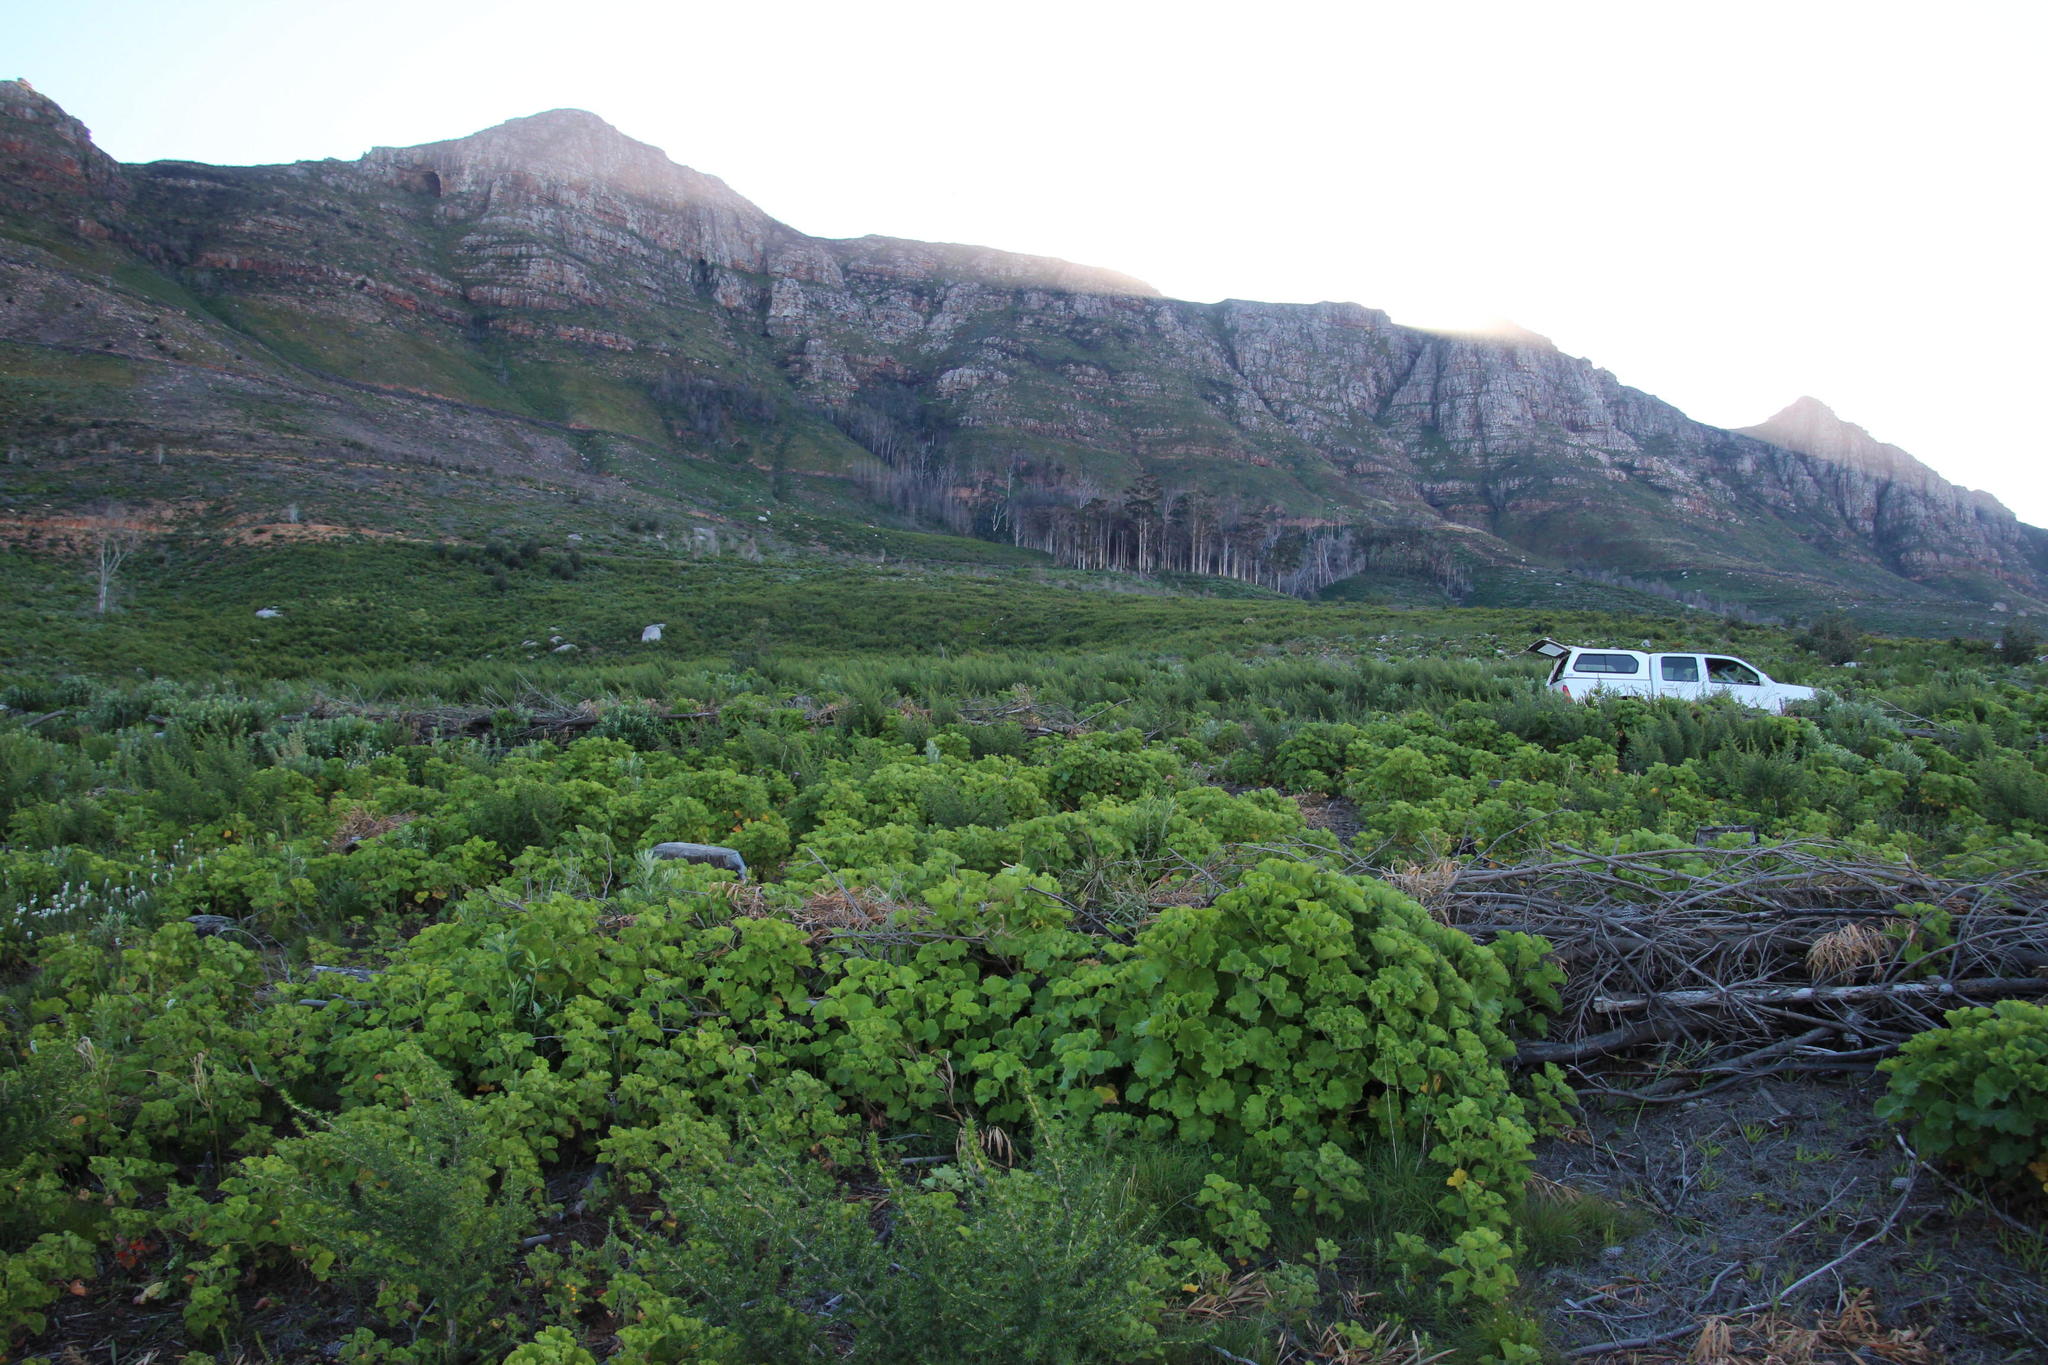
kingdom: Plantae
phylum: Tracheophyta
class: Magnoliopsida
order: Geraniales
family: Geraniaceae
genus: Pelargonium
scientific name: Pelargonium cucullatum
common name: Tree pelargonium
